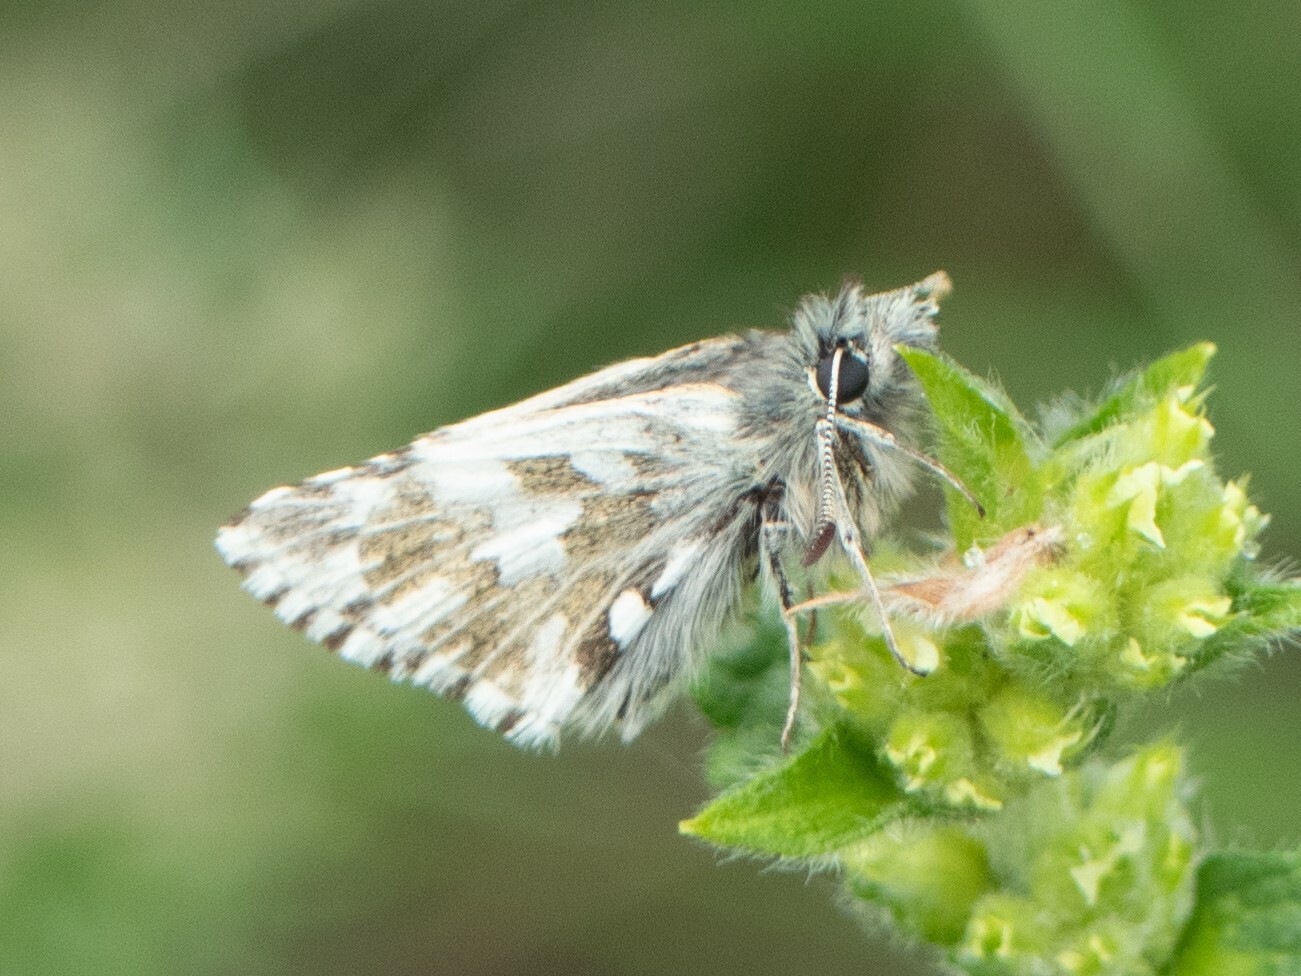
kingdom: Animalia
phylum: Arthropoda
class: Insecta
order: Lepidoptera
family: Hesperiidae
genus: Pyrgus
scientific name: Pyrgus andromedae
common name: Alpine grizzled skipper
